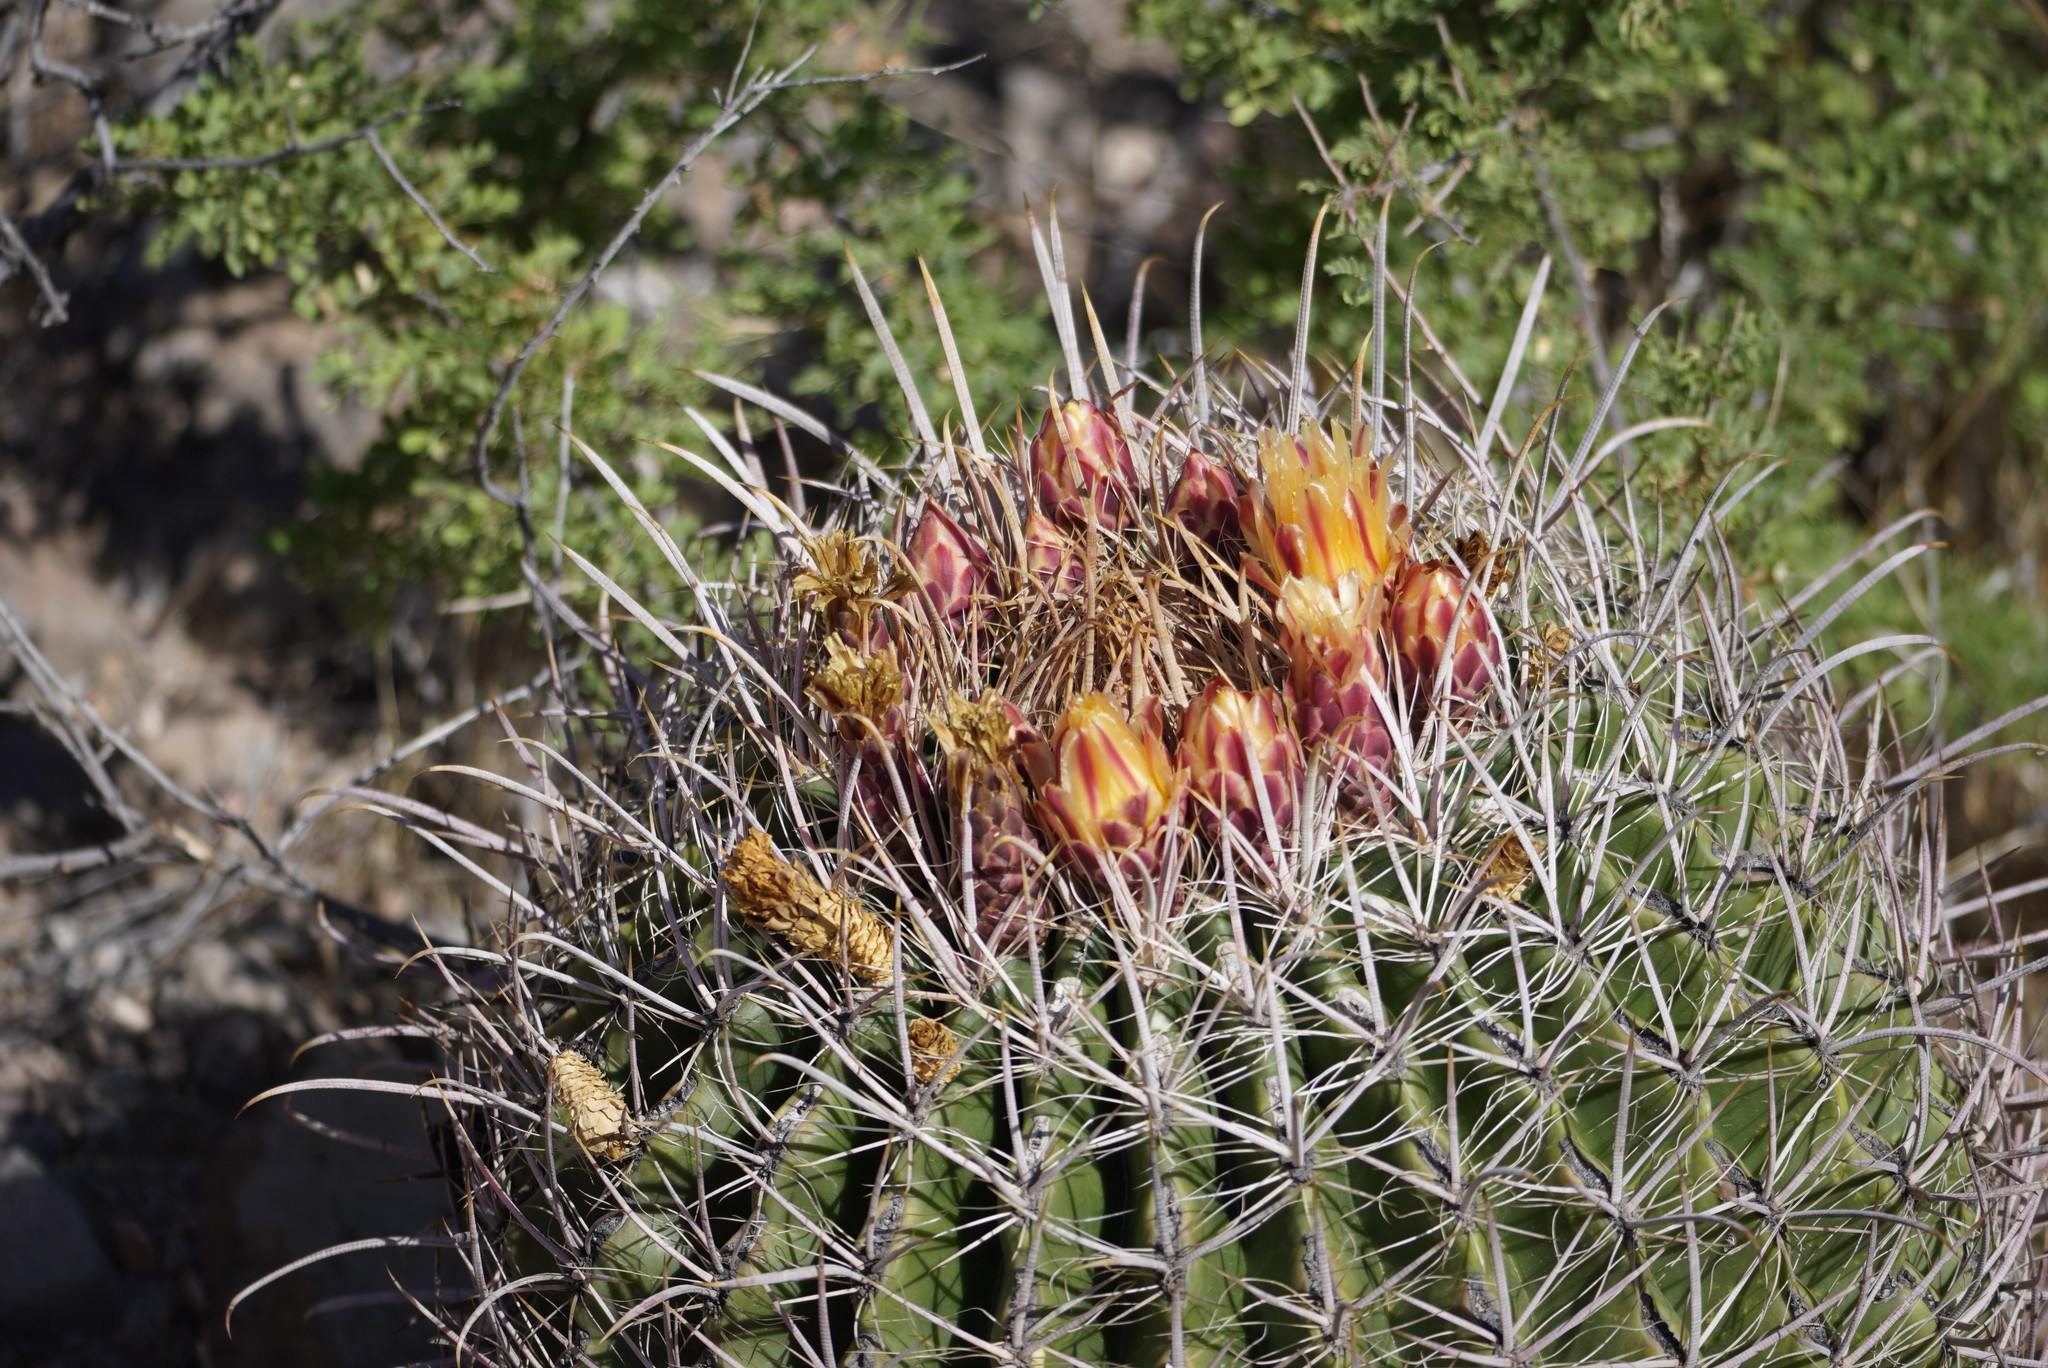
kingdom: Plantae
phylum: Tracheophyta
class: Magnoliopsida
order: Caryophyllales
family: Cactaceae
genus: Ferocactus
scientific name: Ferocactus wislizeni
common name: Candy barrel cactus
